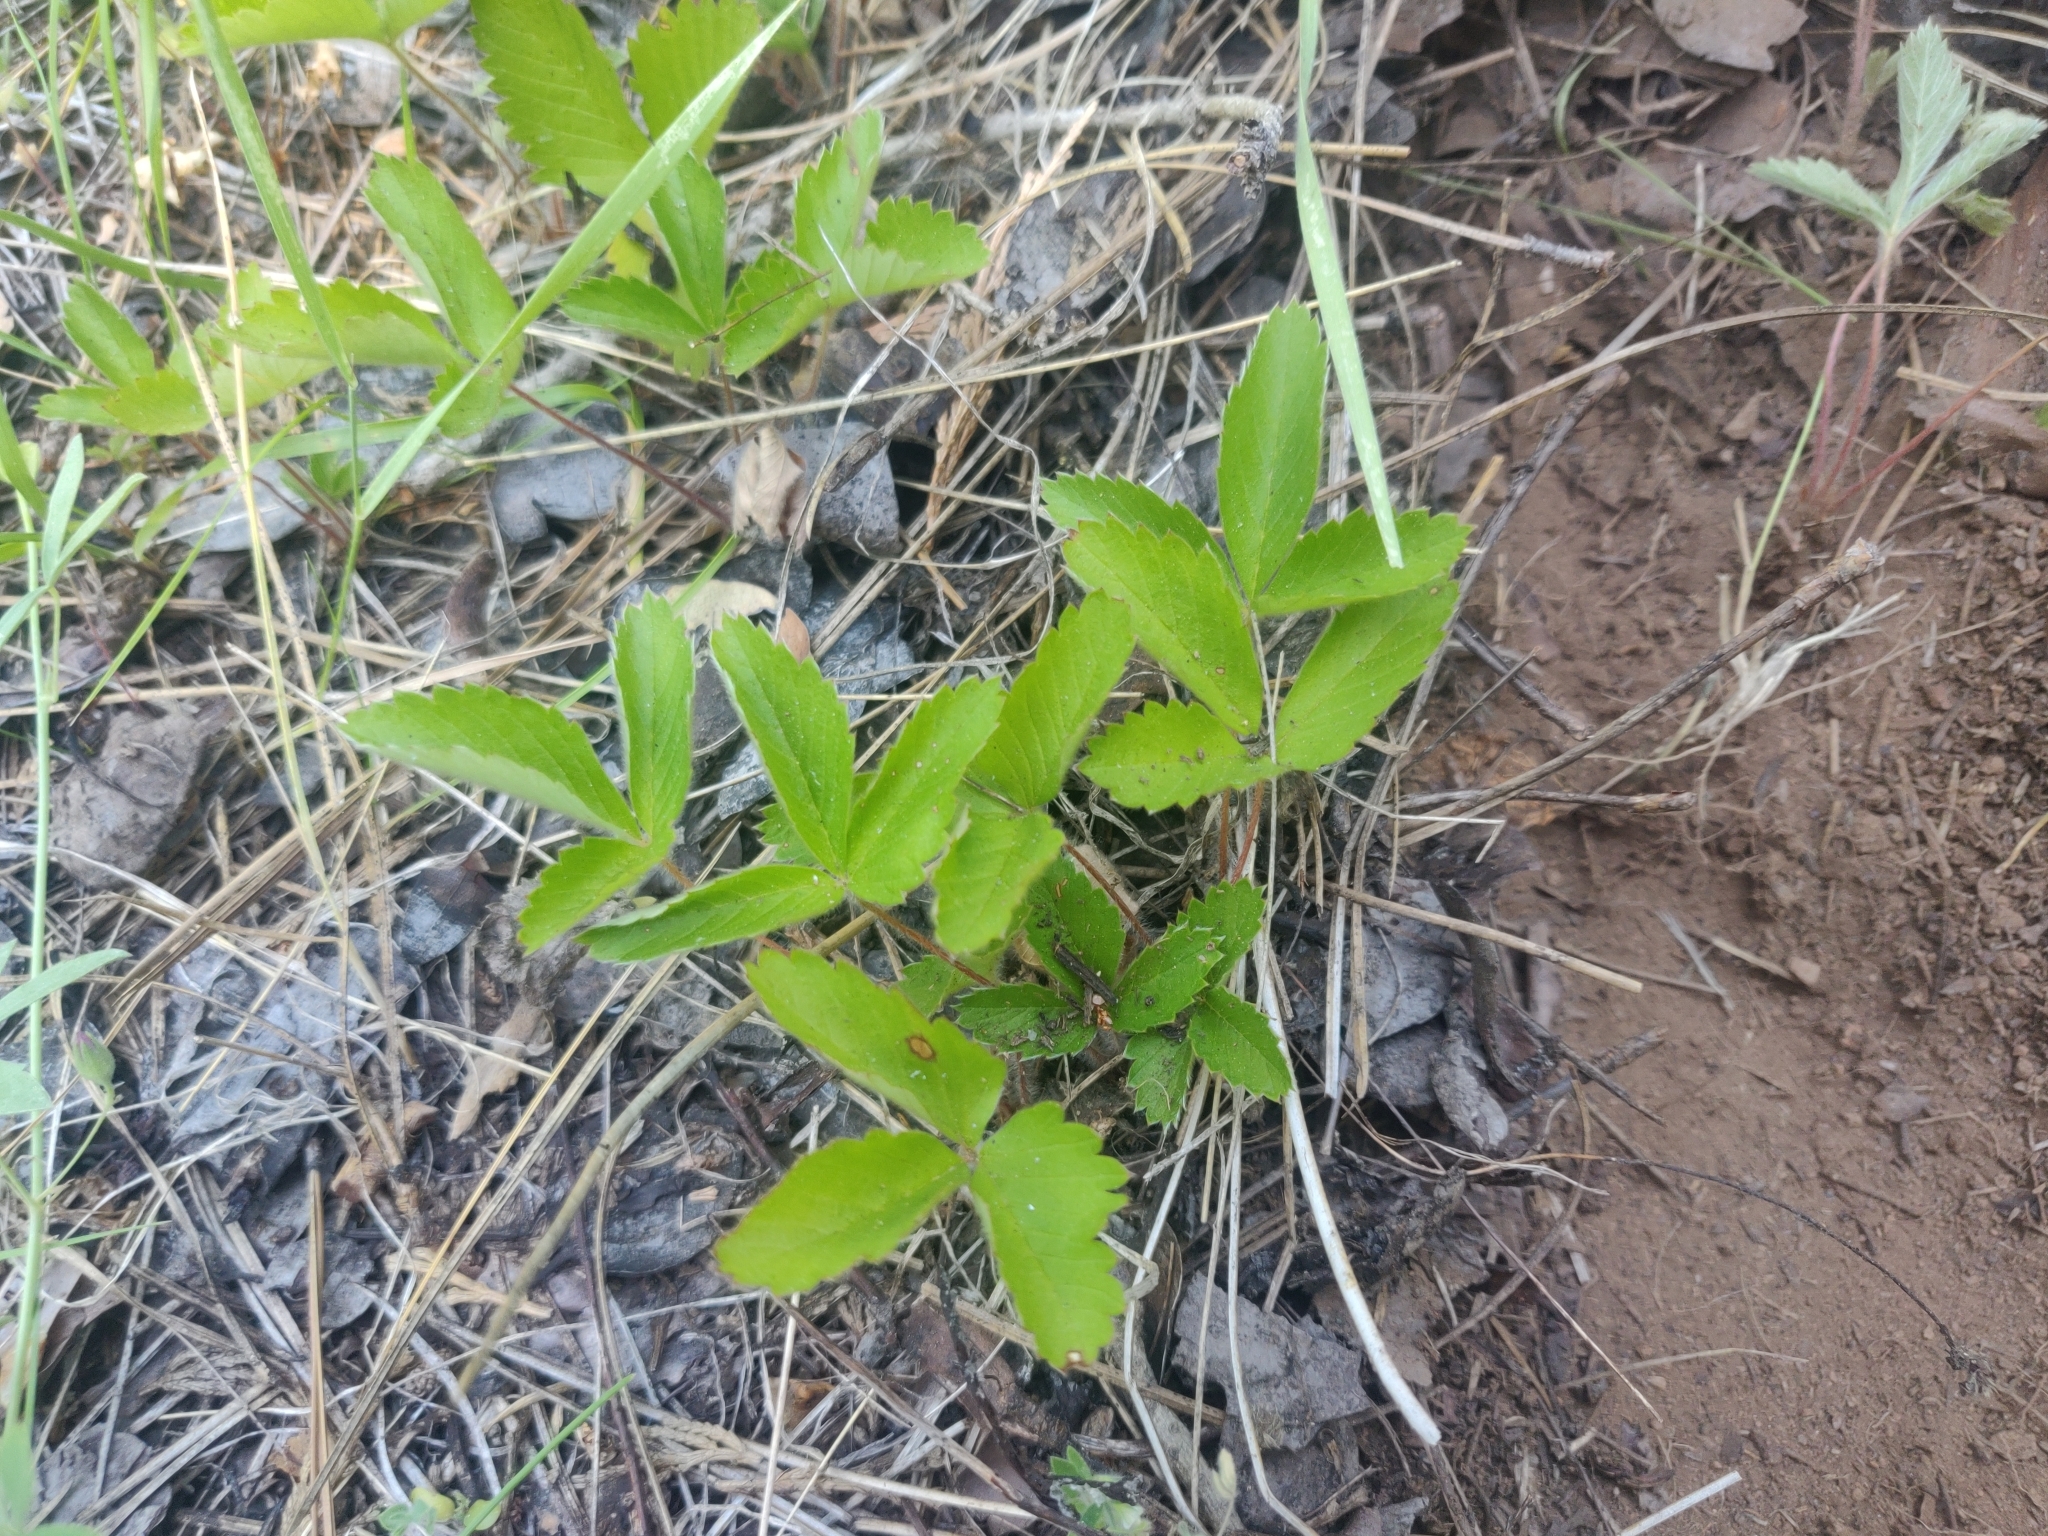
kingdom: Plantae
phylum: Tracheophyta
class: Magnoliopsida
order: Rosales
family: Rosaceae
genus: Fragaria
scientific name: Fragaria vesca
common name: Wild strawberry
